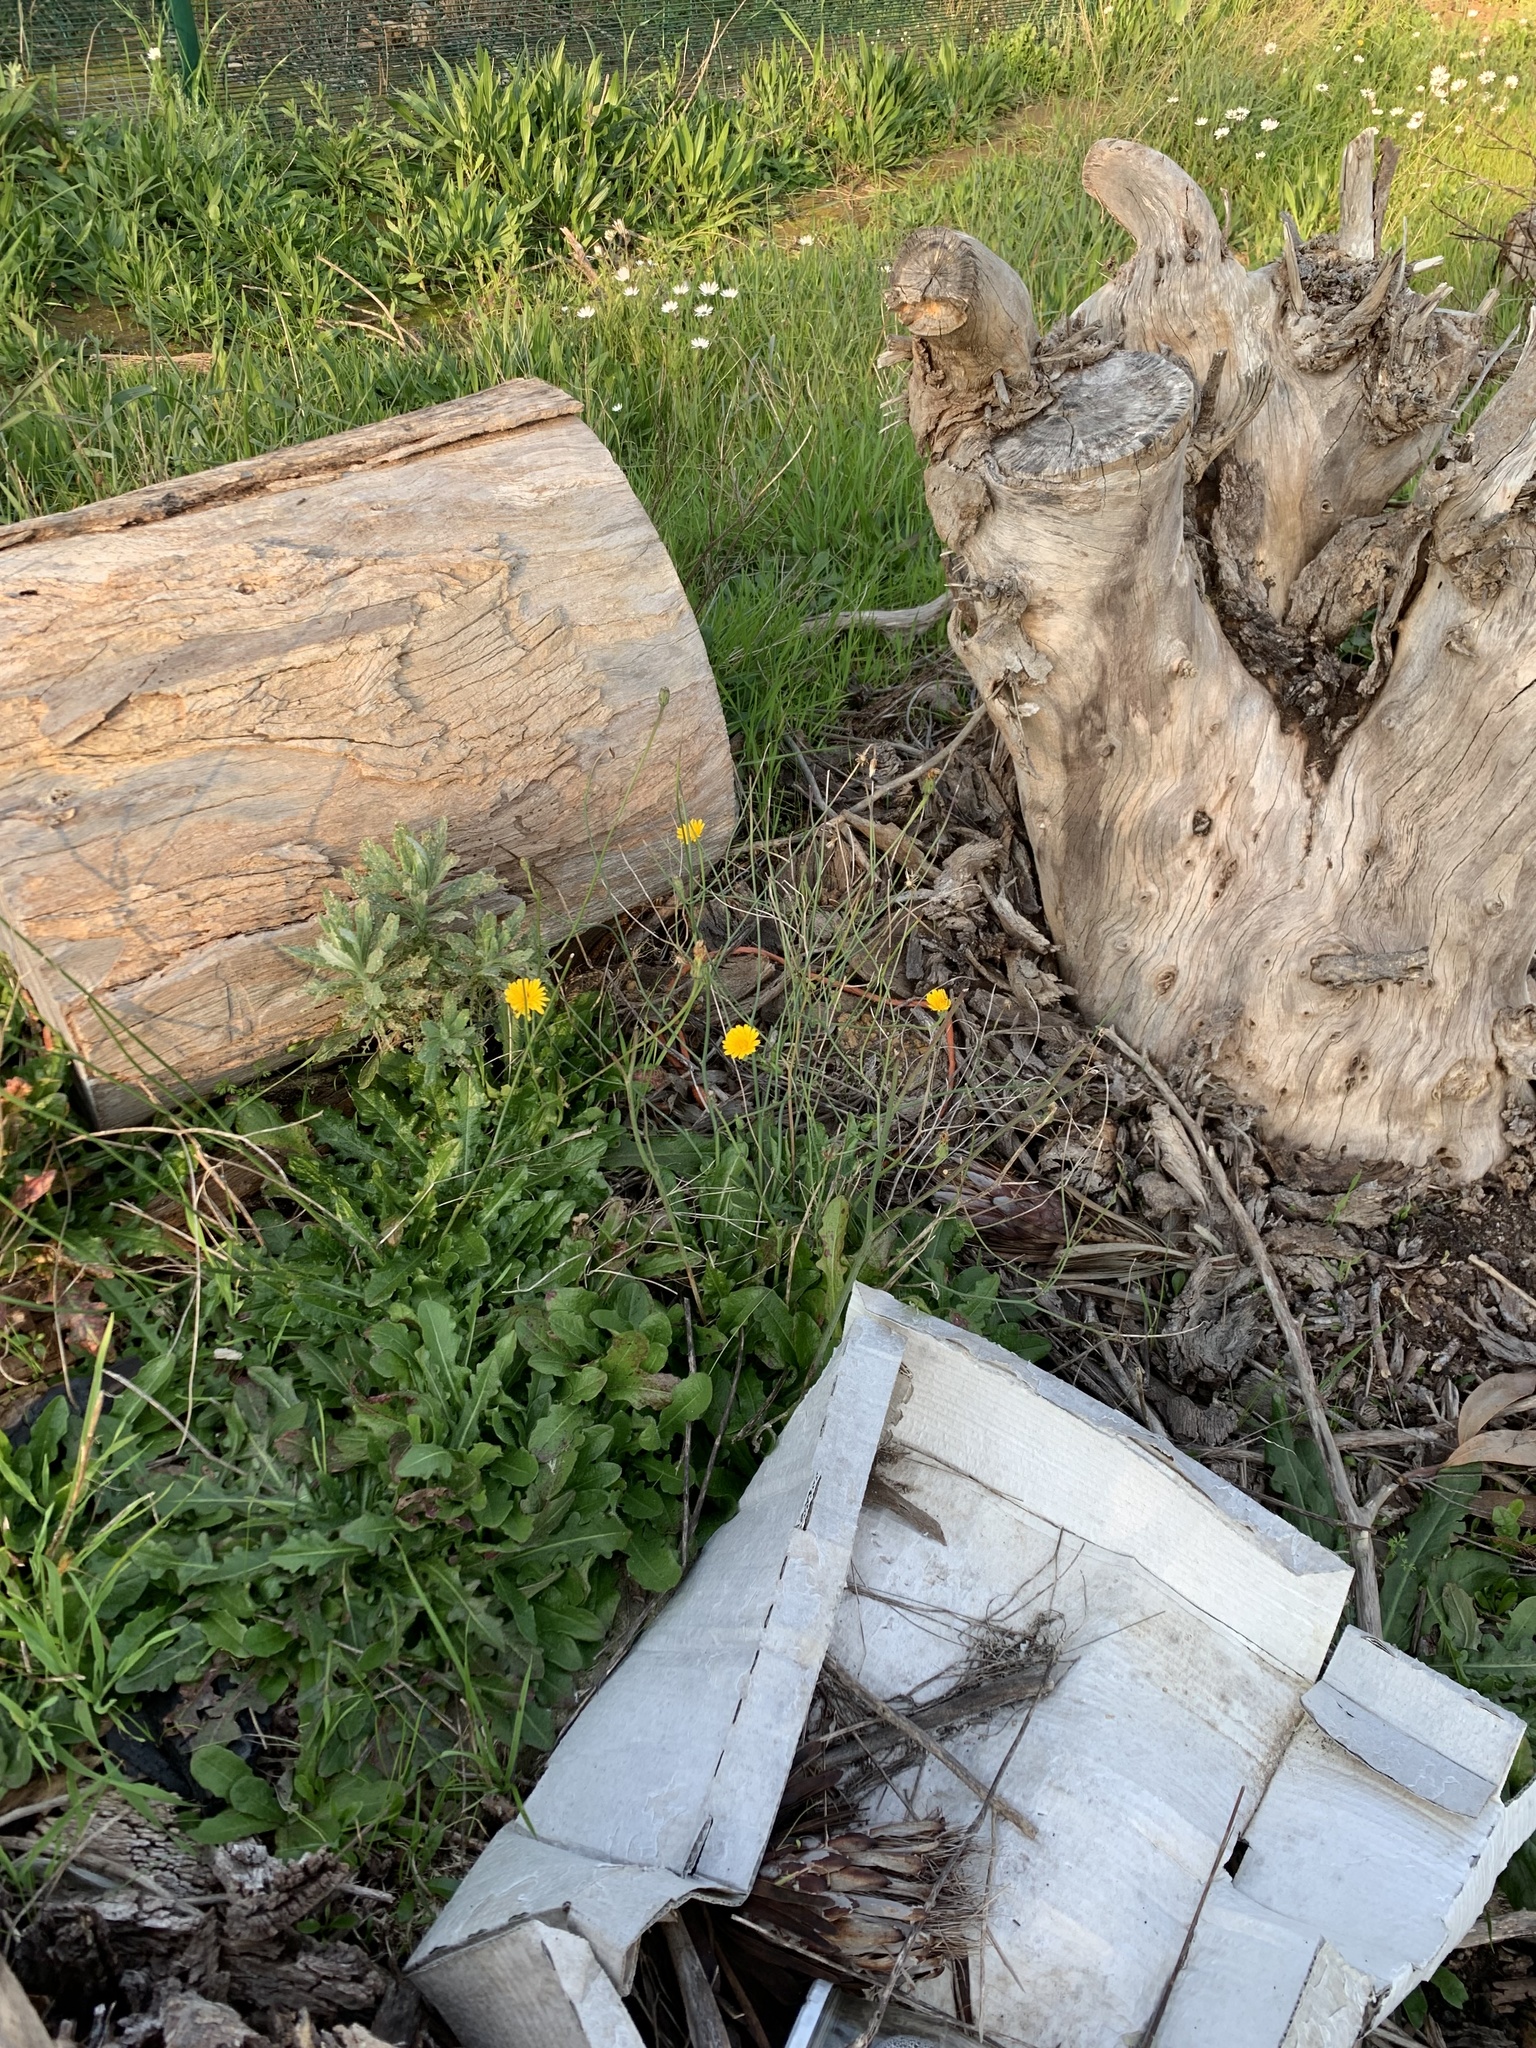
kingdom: Plantae
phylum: Tracheophyta
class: Magnoliopsida
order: Asterales
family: Asteraceae
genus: Hypochaeris
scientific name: Hypochaeris radicata
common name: Flatweed
